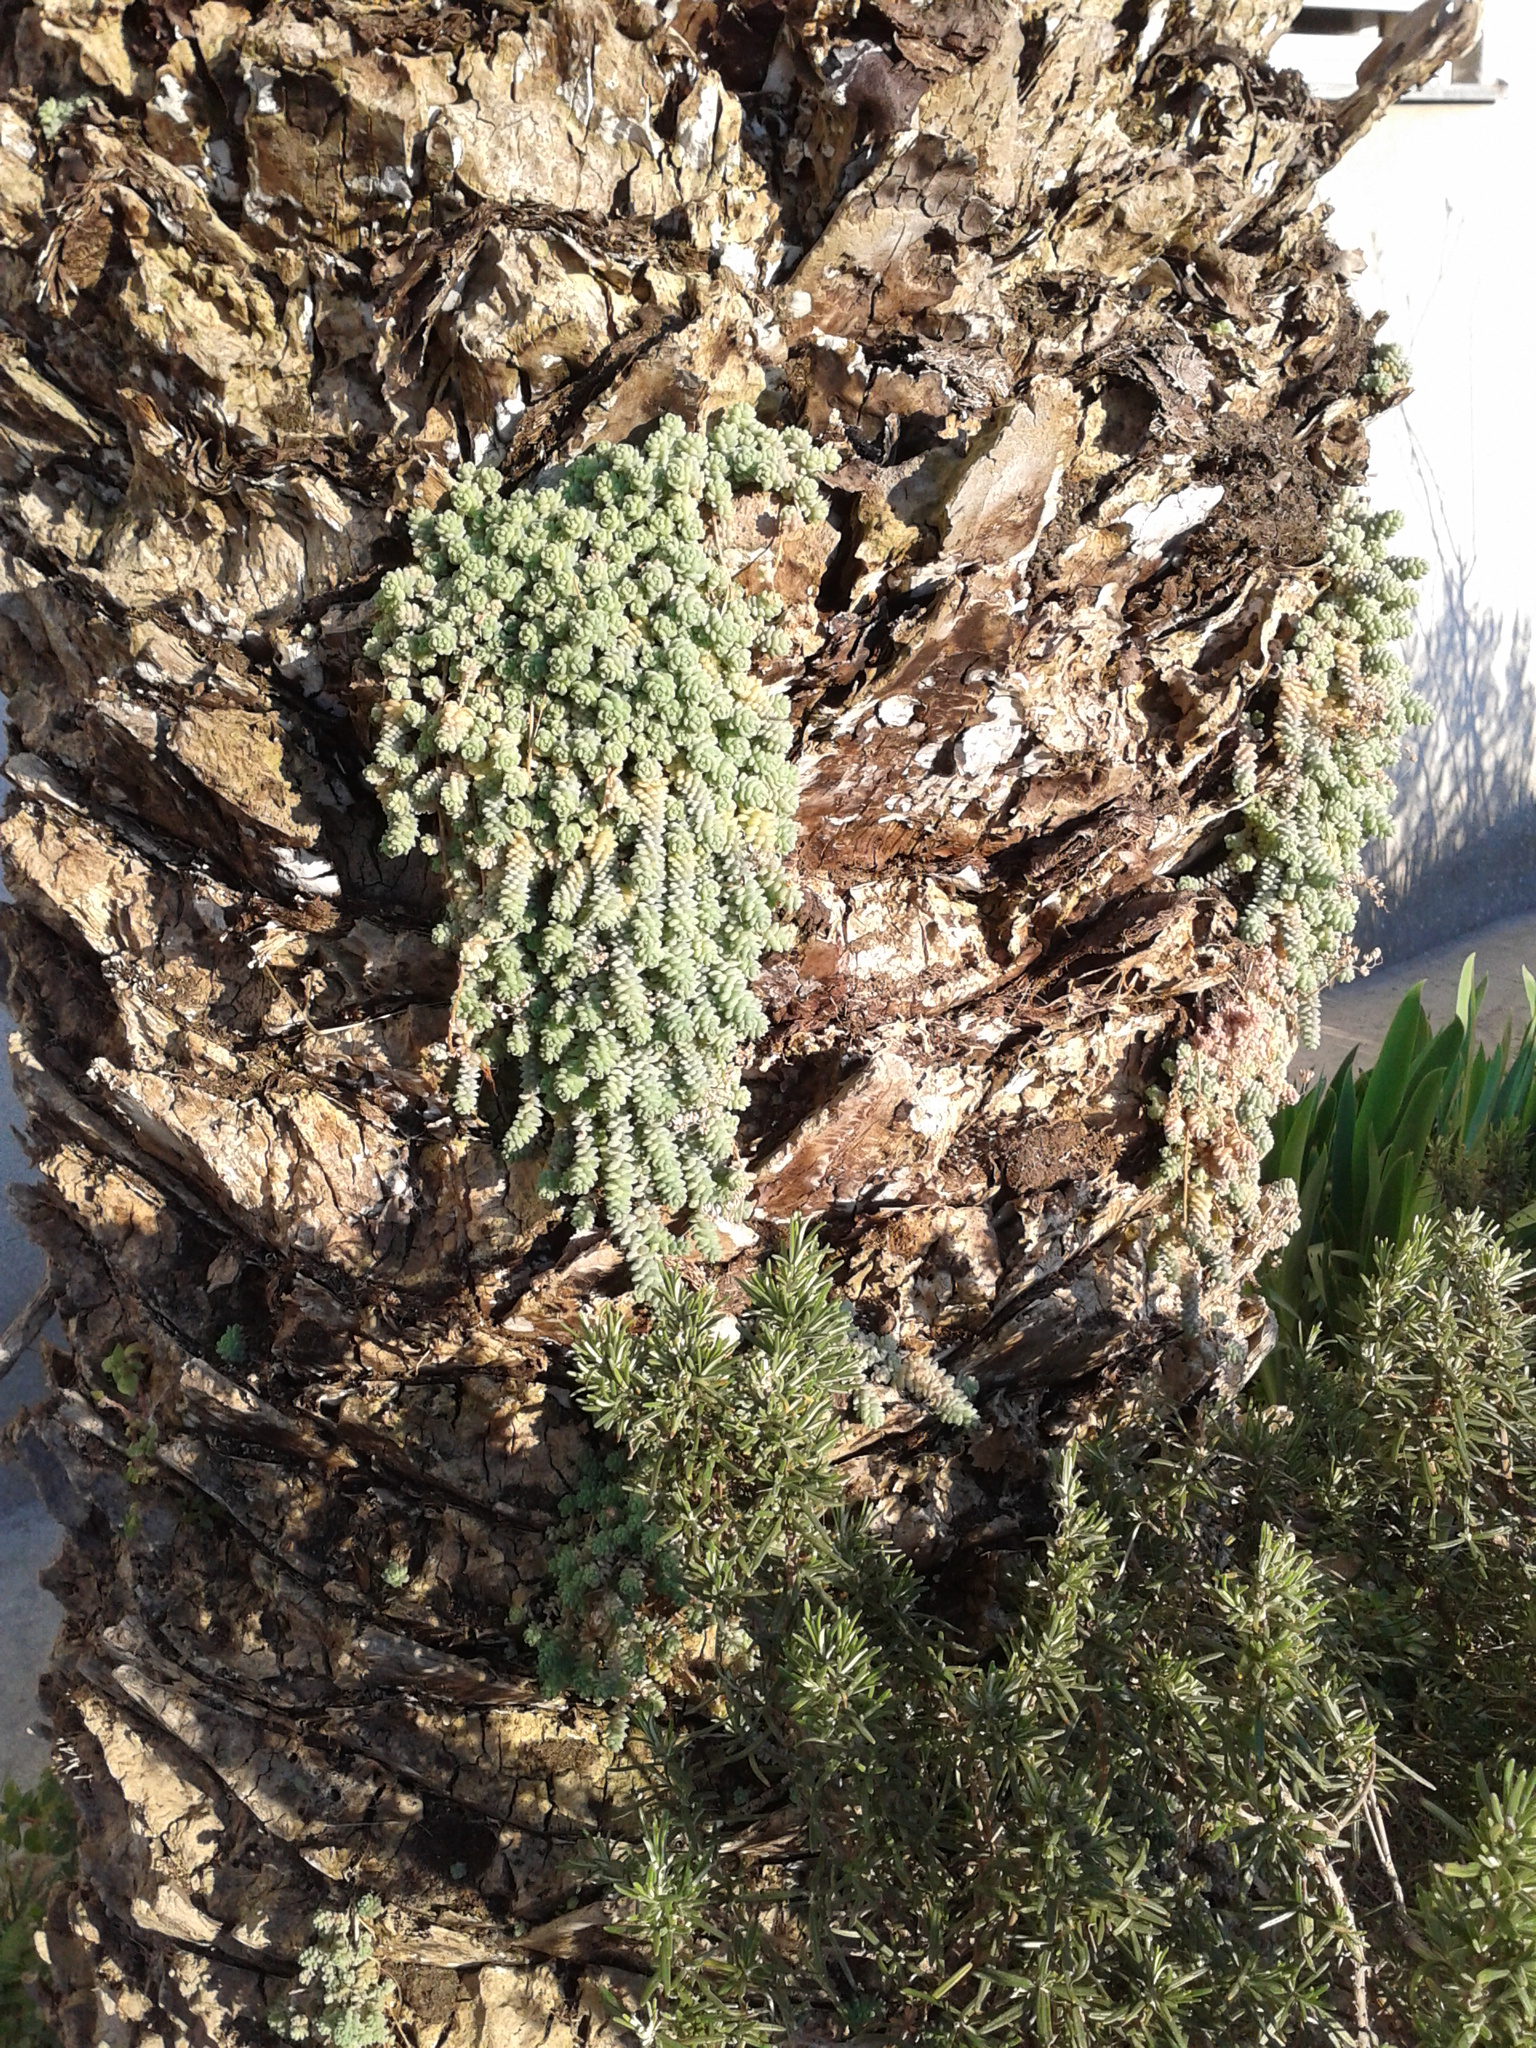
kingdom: Plantae
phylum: Tracheophyta
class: Magnoliopsida
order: Saxifragales
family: Crassulaceae
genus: Sedum
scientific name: Sedum dasyphyllum
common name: Thick-leaf stonecrop
